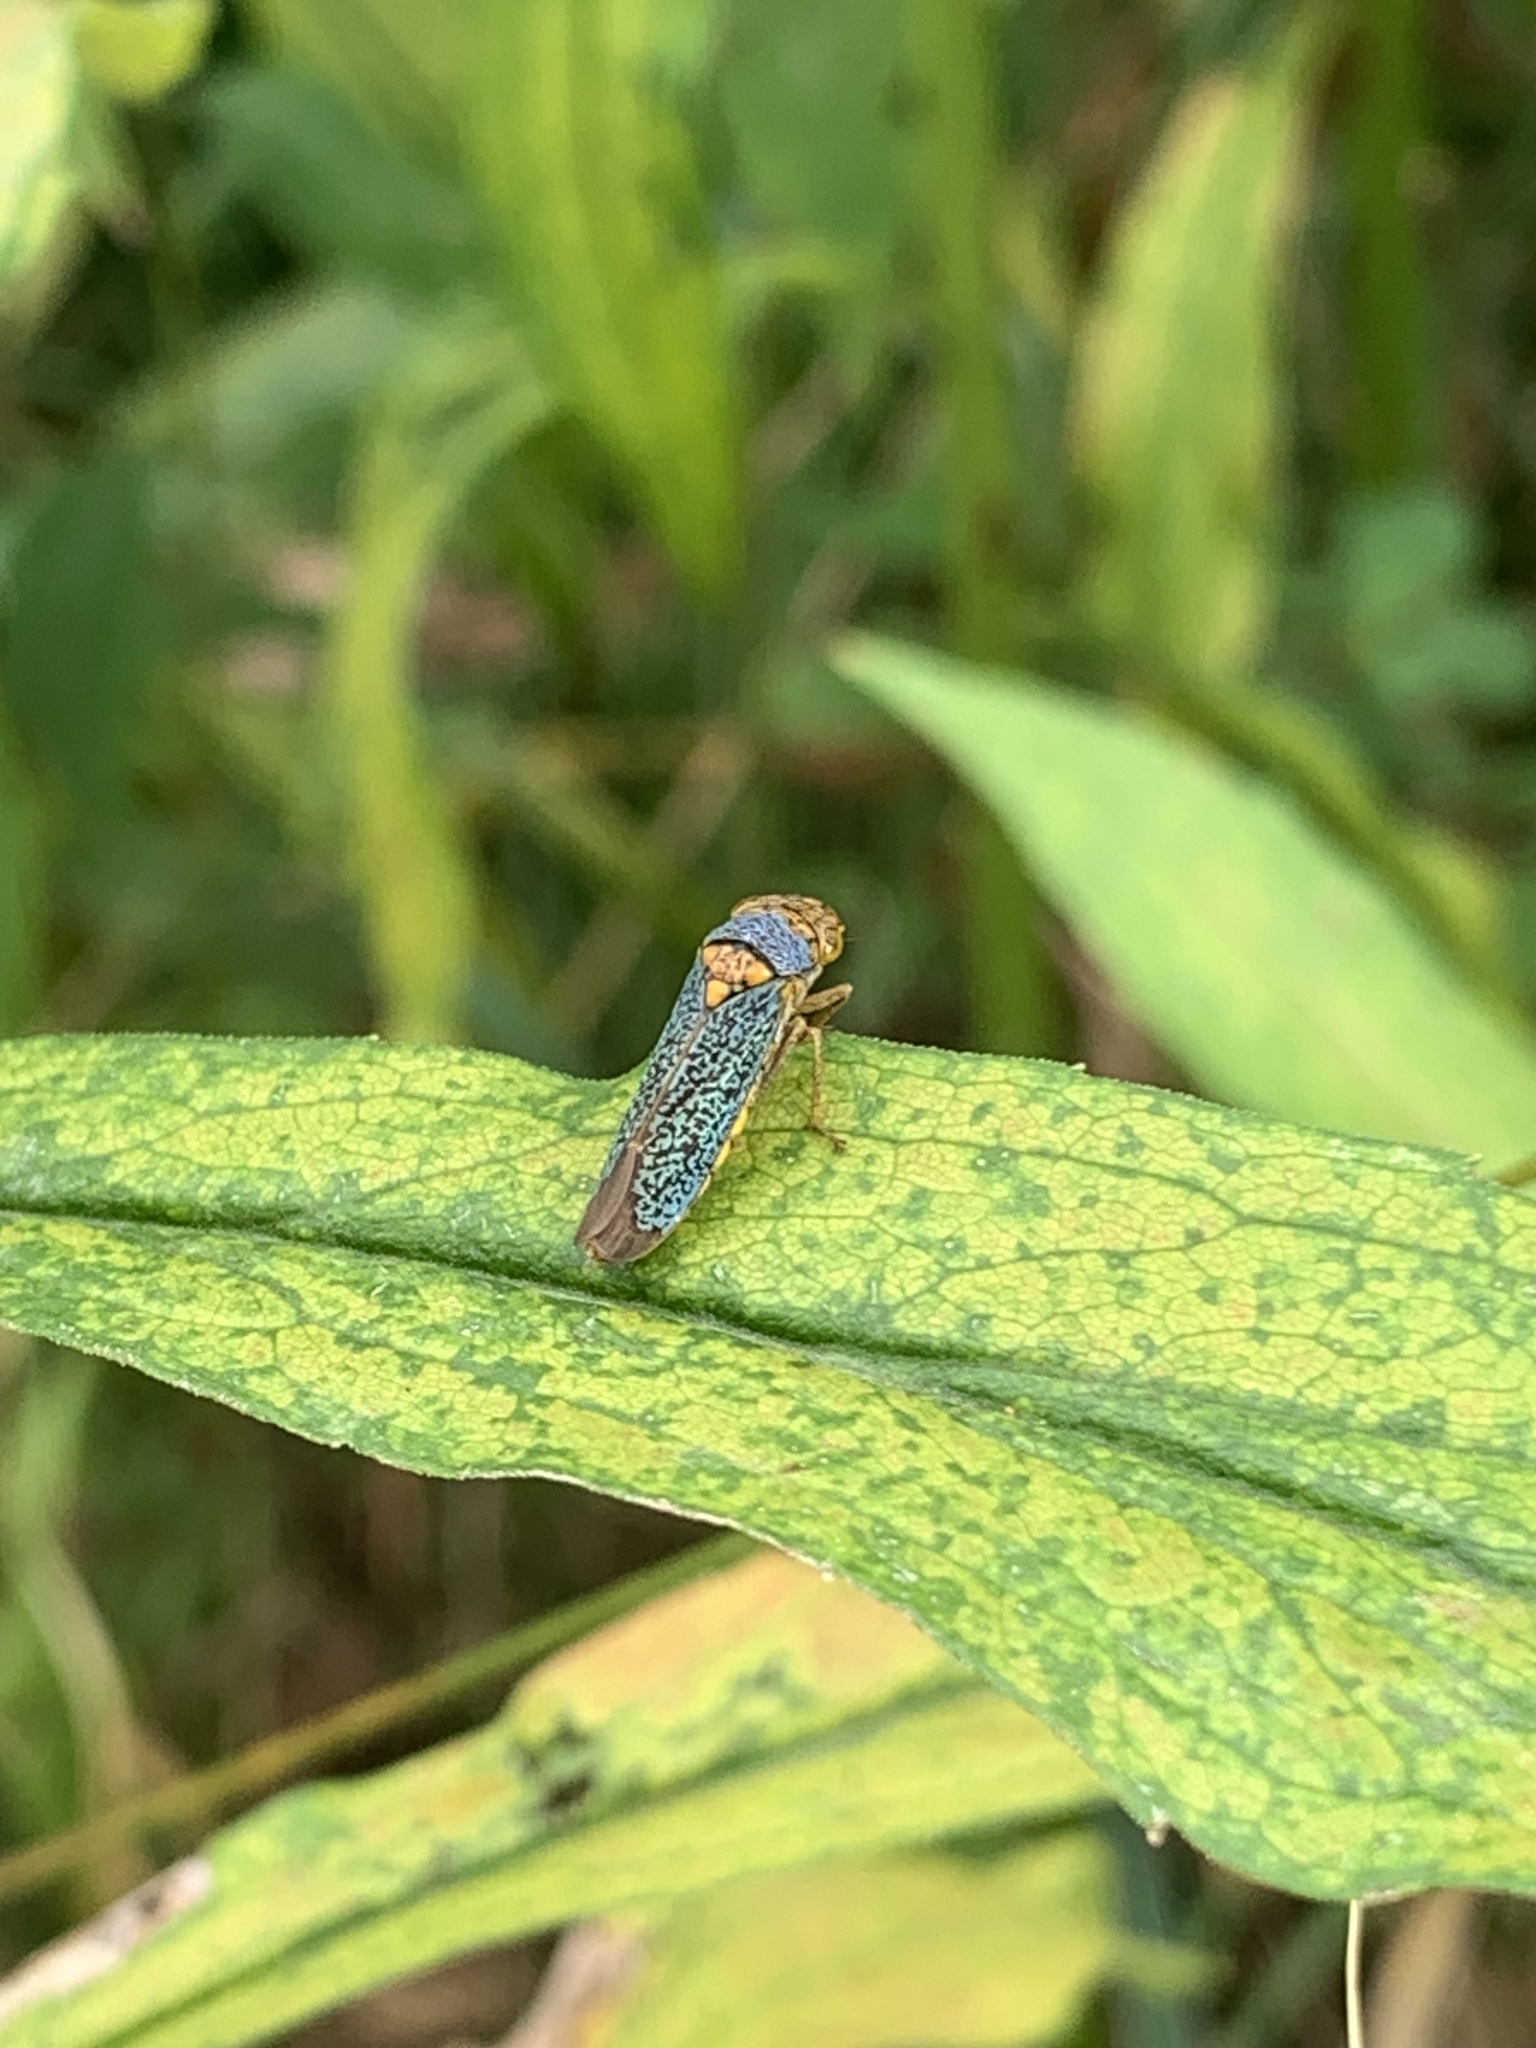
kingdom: Animalia
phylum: Arthropoda
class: Insecta
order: Hemiptera
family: Cicadellidae
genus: Oncometopia
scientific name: Oncometopia orbona
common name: Broad-headed sharpshooter
